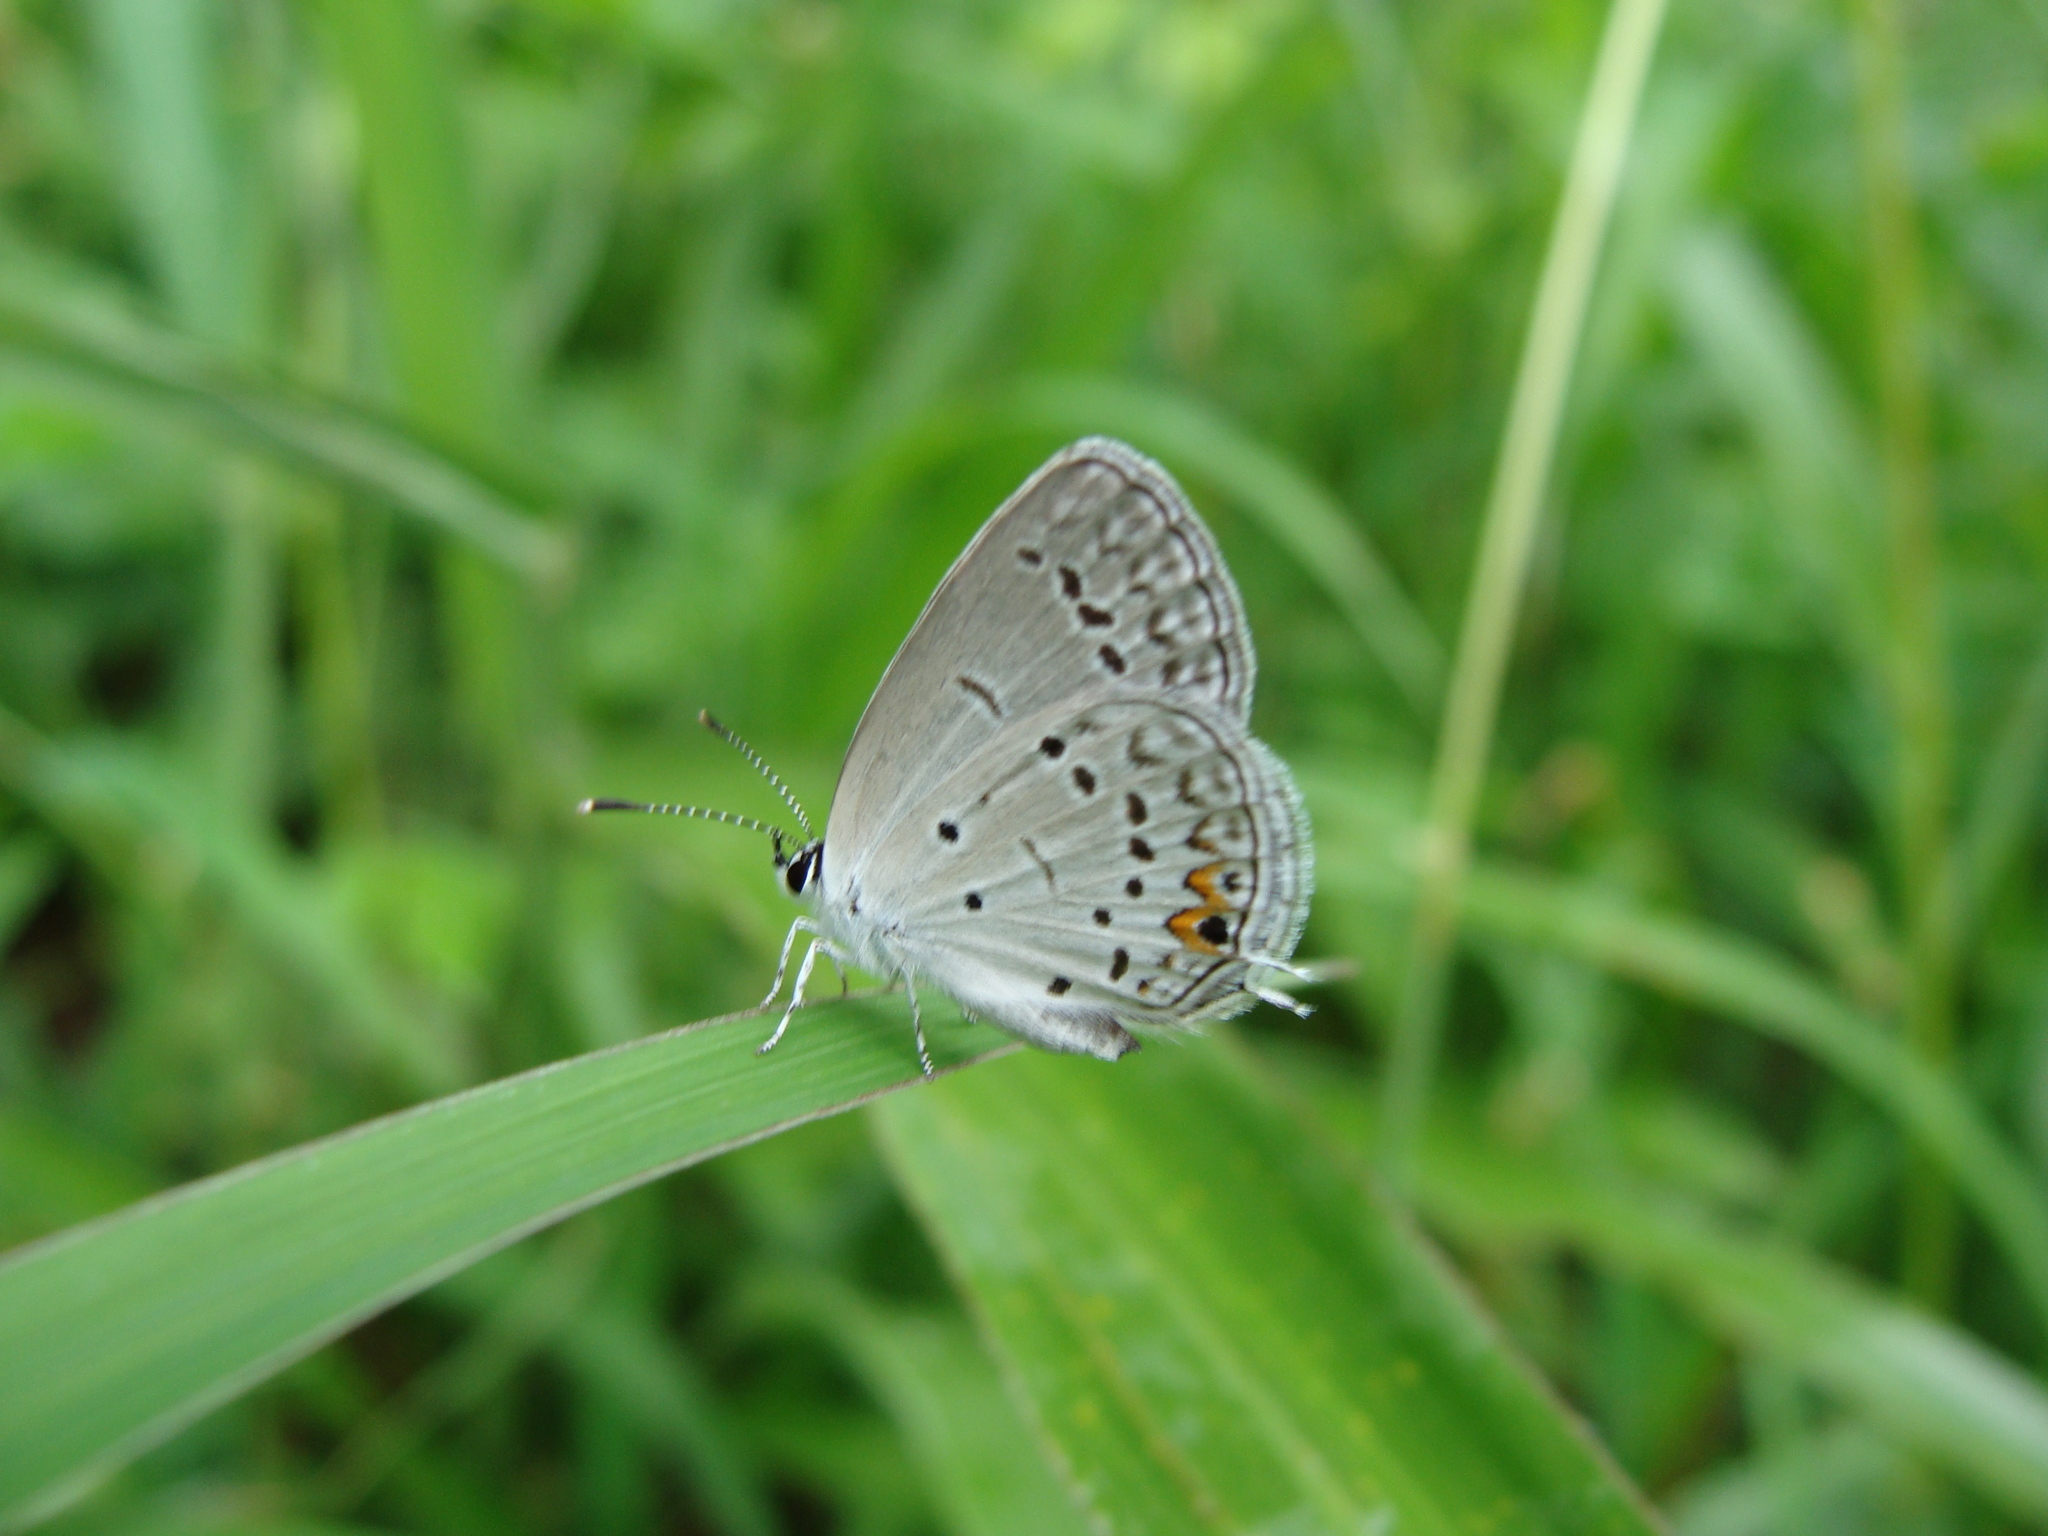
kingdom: Animalia
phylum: Arthropoda
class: Insecta
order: Lepidoptera
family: Lycaenidae
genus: Elkalyce
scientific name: Elkalyce texana
